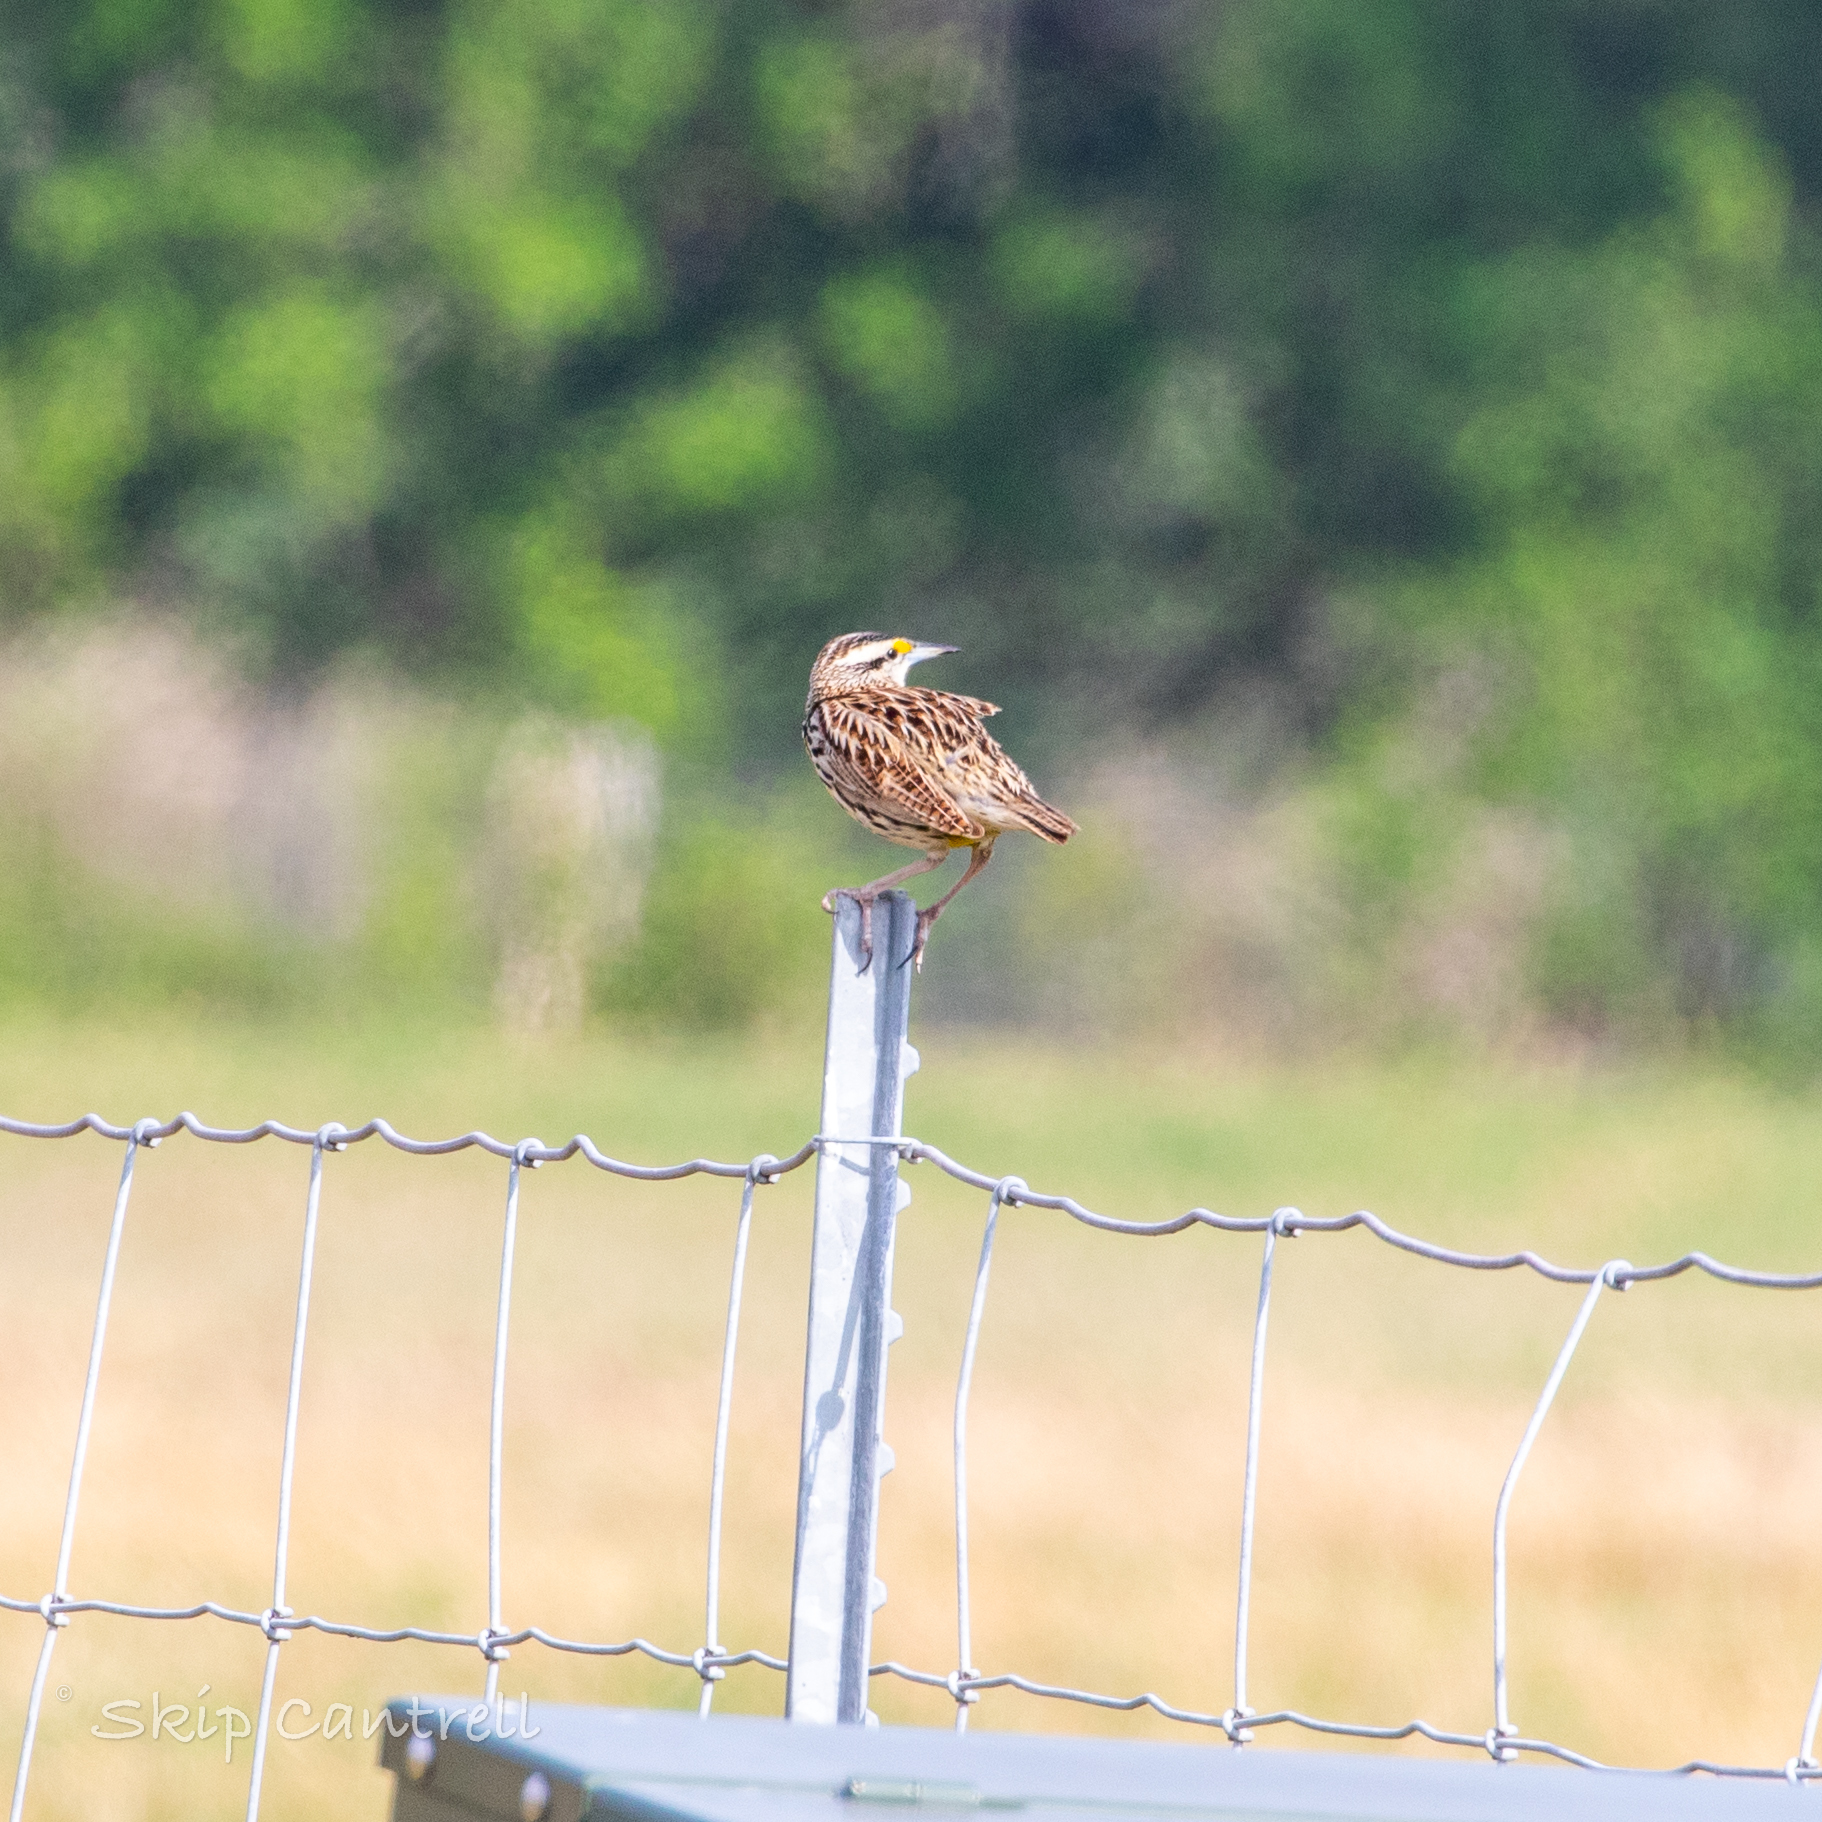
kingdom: Animalia
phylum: Chordata
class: Aves
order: Passeriformes
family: Icteridae
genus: Sturnella
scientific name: Sturnella magna
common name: Eastern meadowlark
